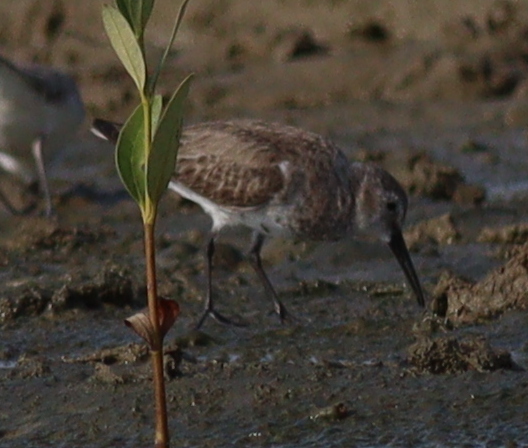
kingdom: Animalia
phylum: Chordata
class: Aves
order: Charadriiformes
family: Scolopacidae
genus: Calidris
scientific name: Calidris alpina
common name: Dunlin
